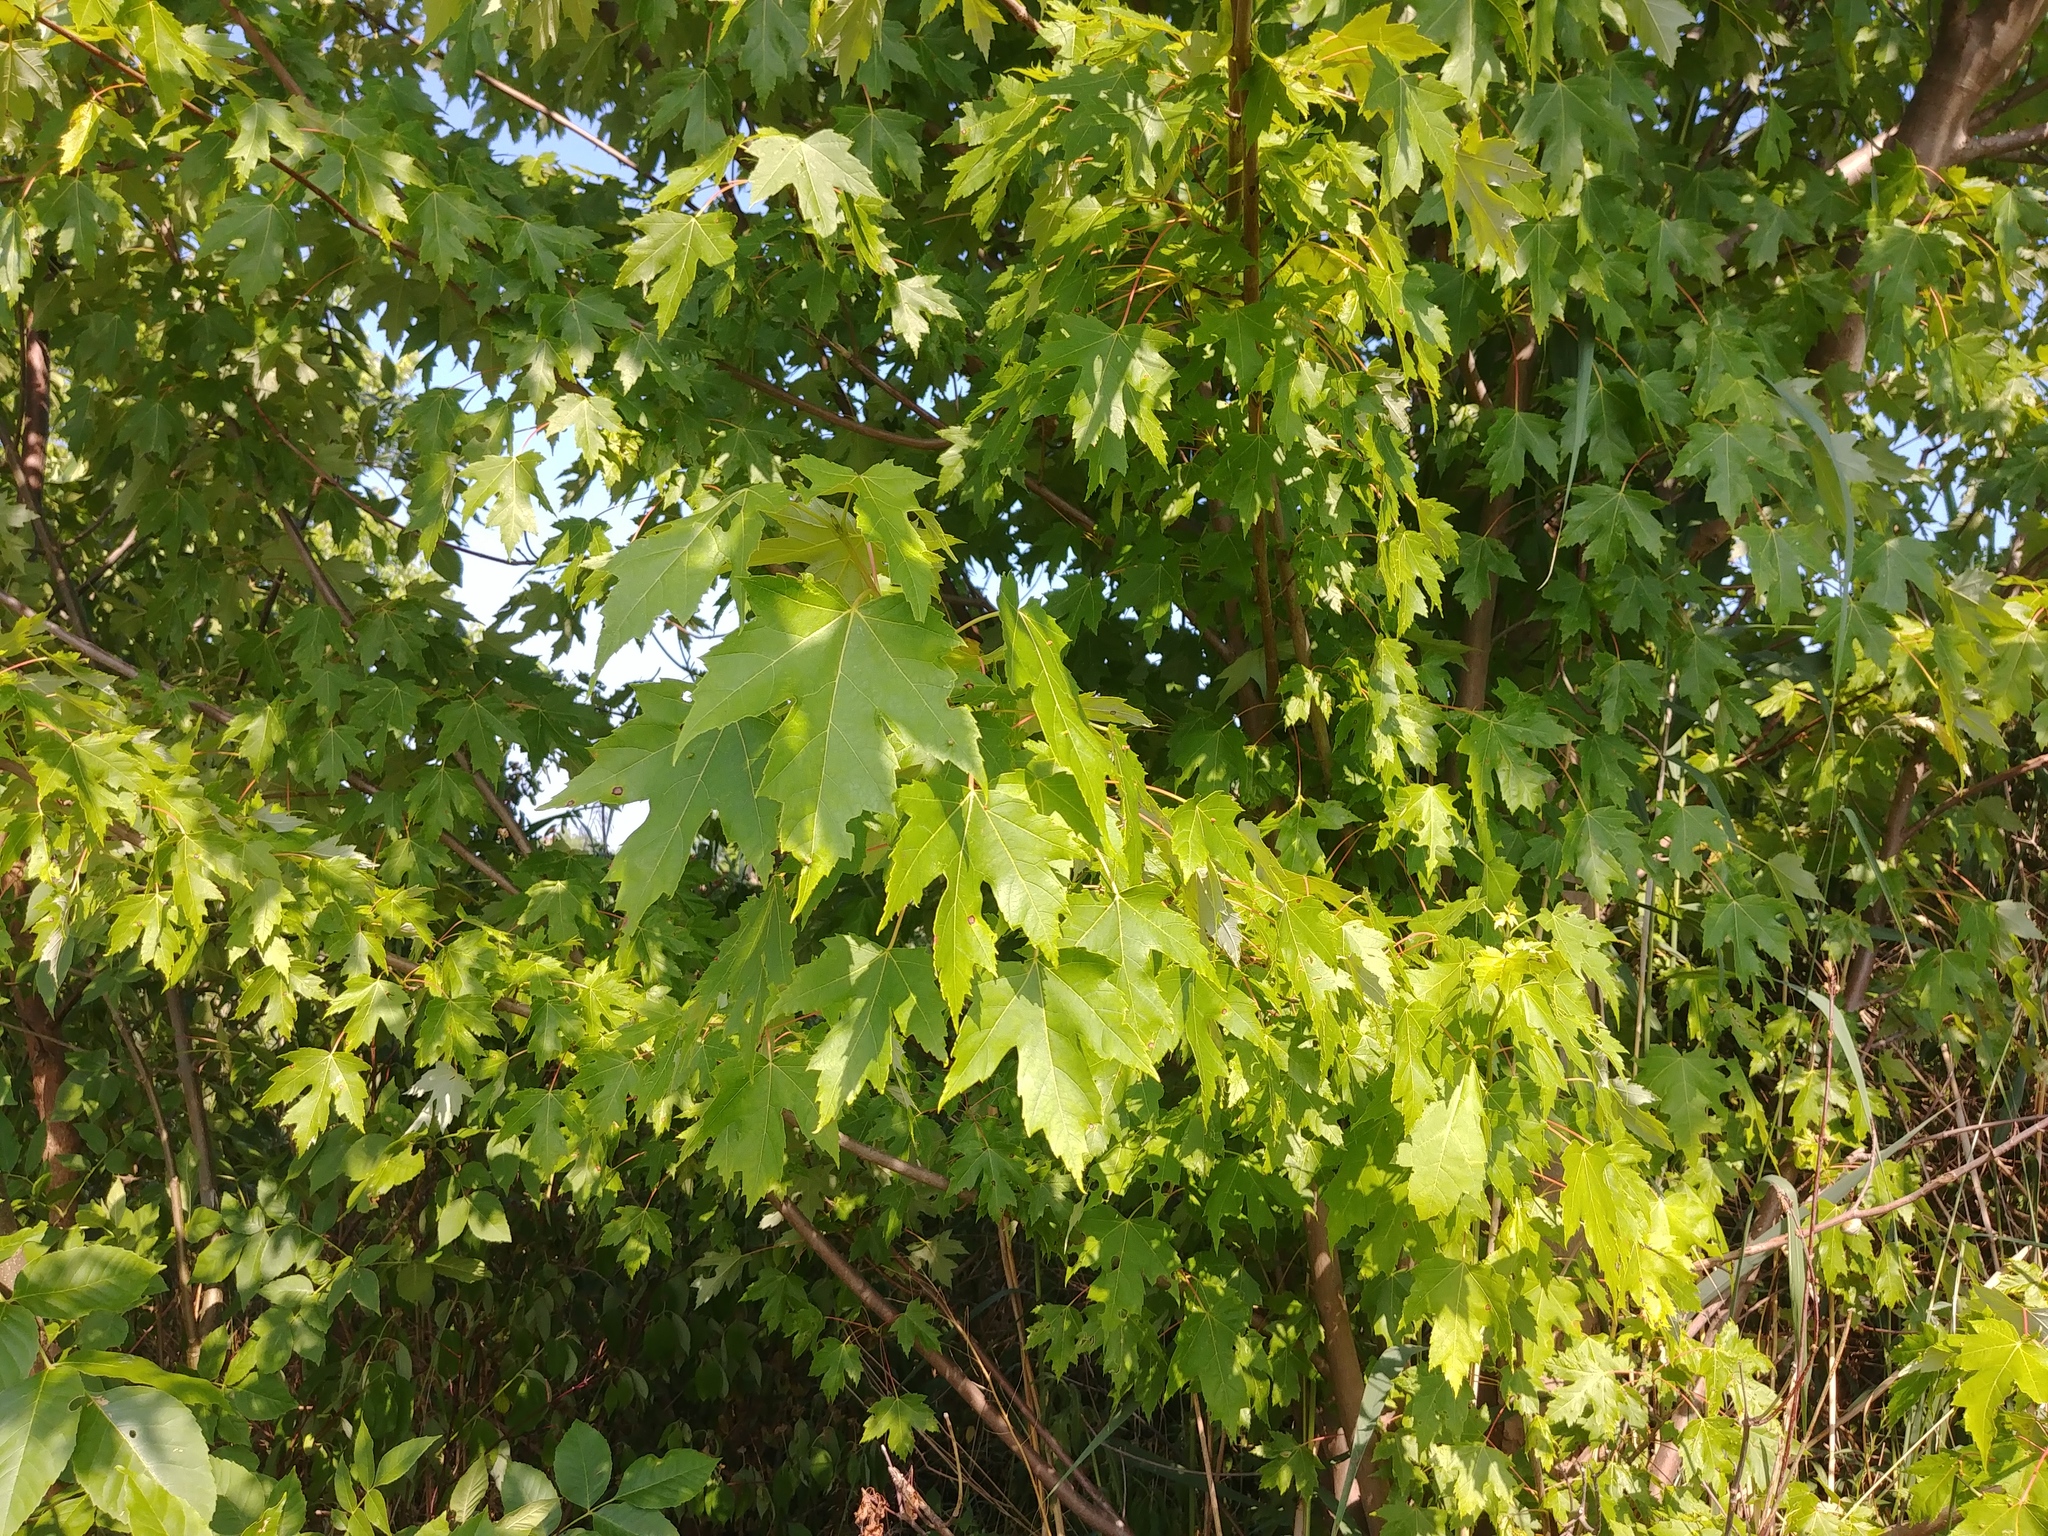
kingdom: Plantae
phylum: Tracheophyta
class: Magnoliopsida
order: Sapindales
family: Sapindaceae
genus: Acer
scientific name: Acer saccharinum
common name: Silver maple
